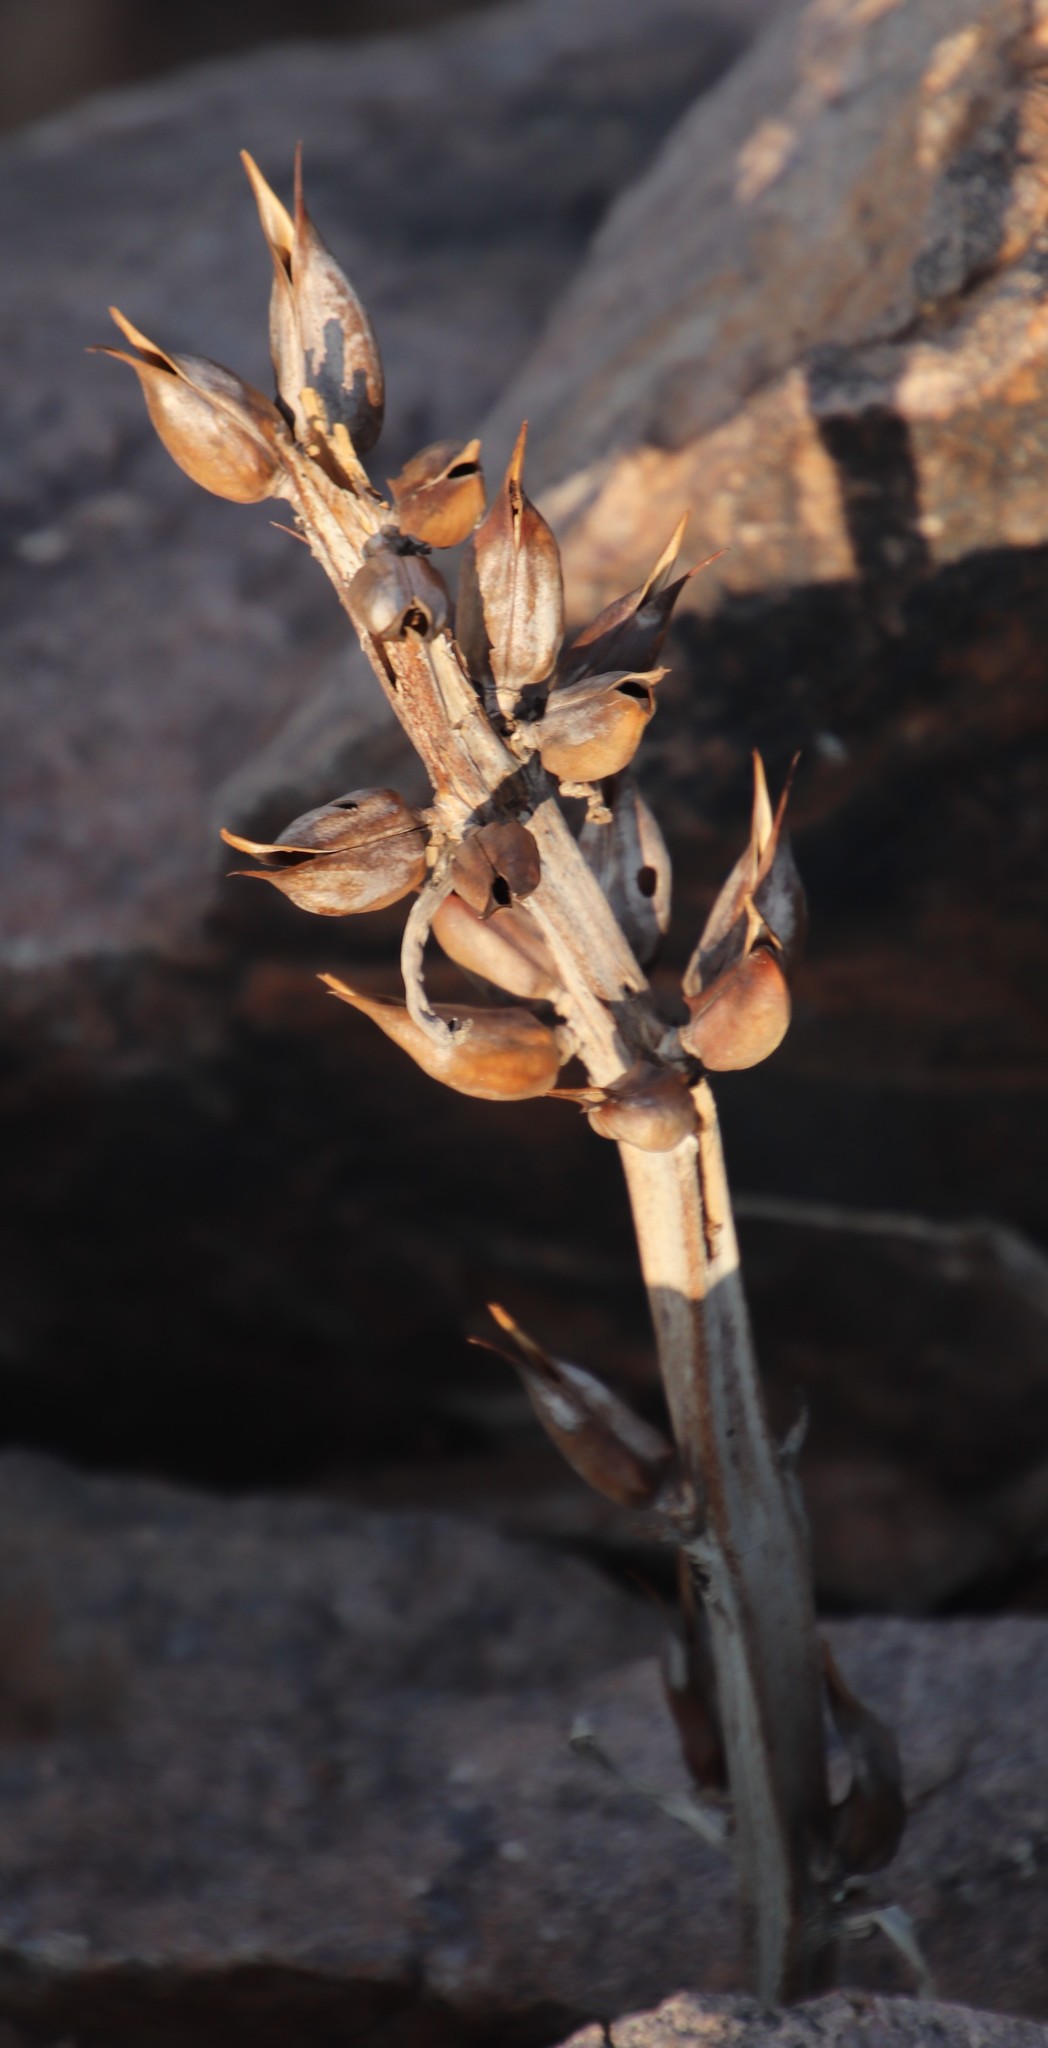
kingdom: Plantae
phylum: Tracheophyta
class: Magnoliopsida
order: Lamiales
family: Pedaliaceae
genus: Rogeria
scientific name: Rogeria longiflora
